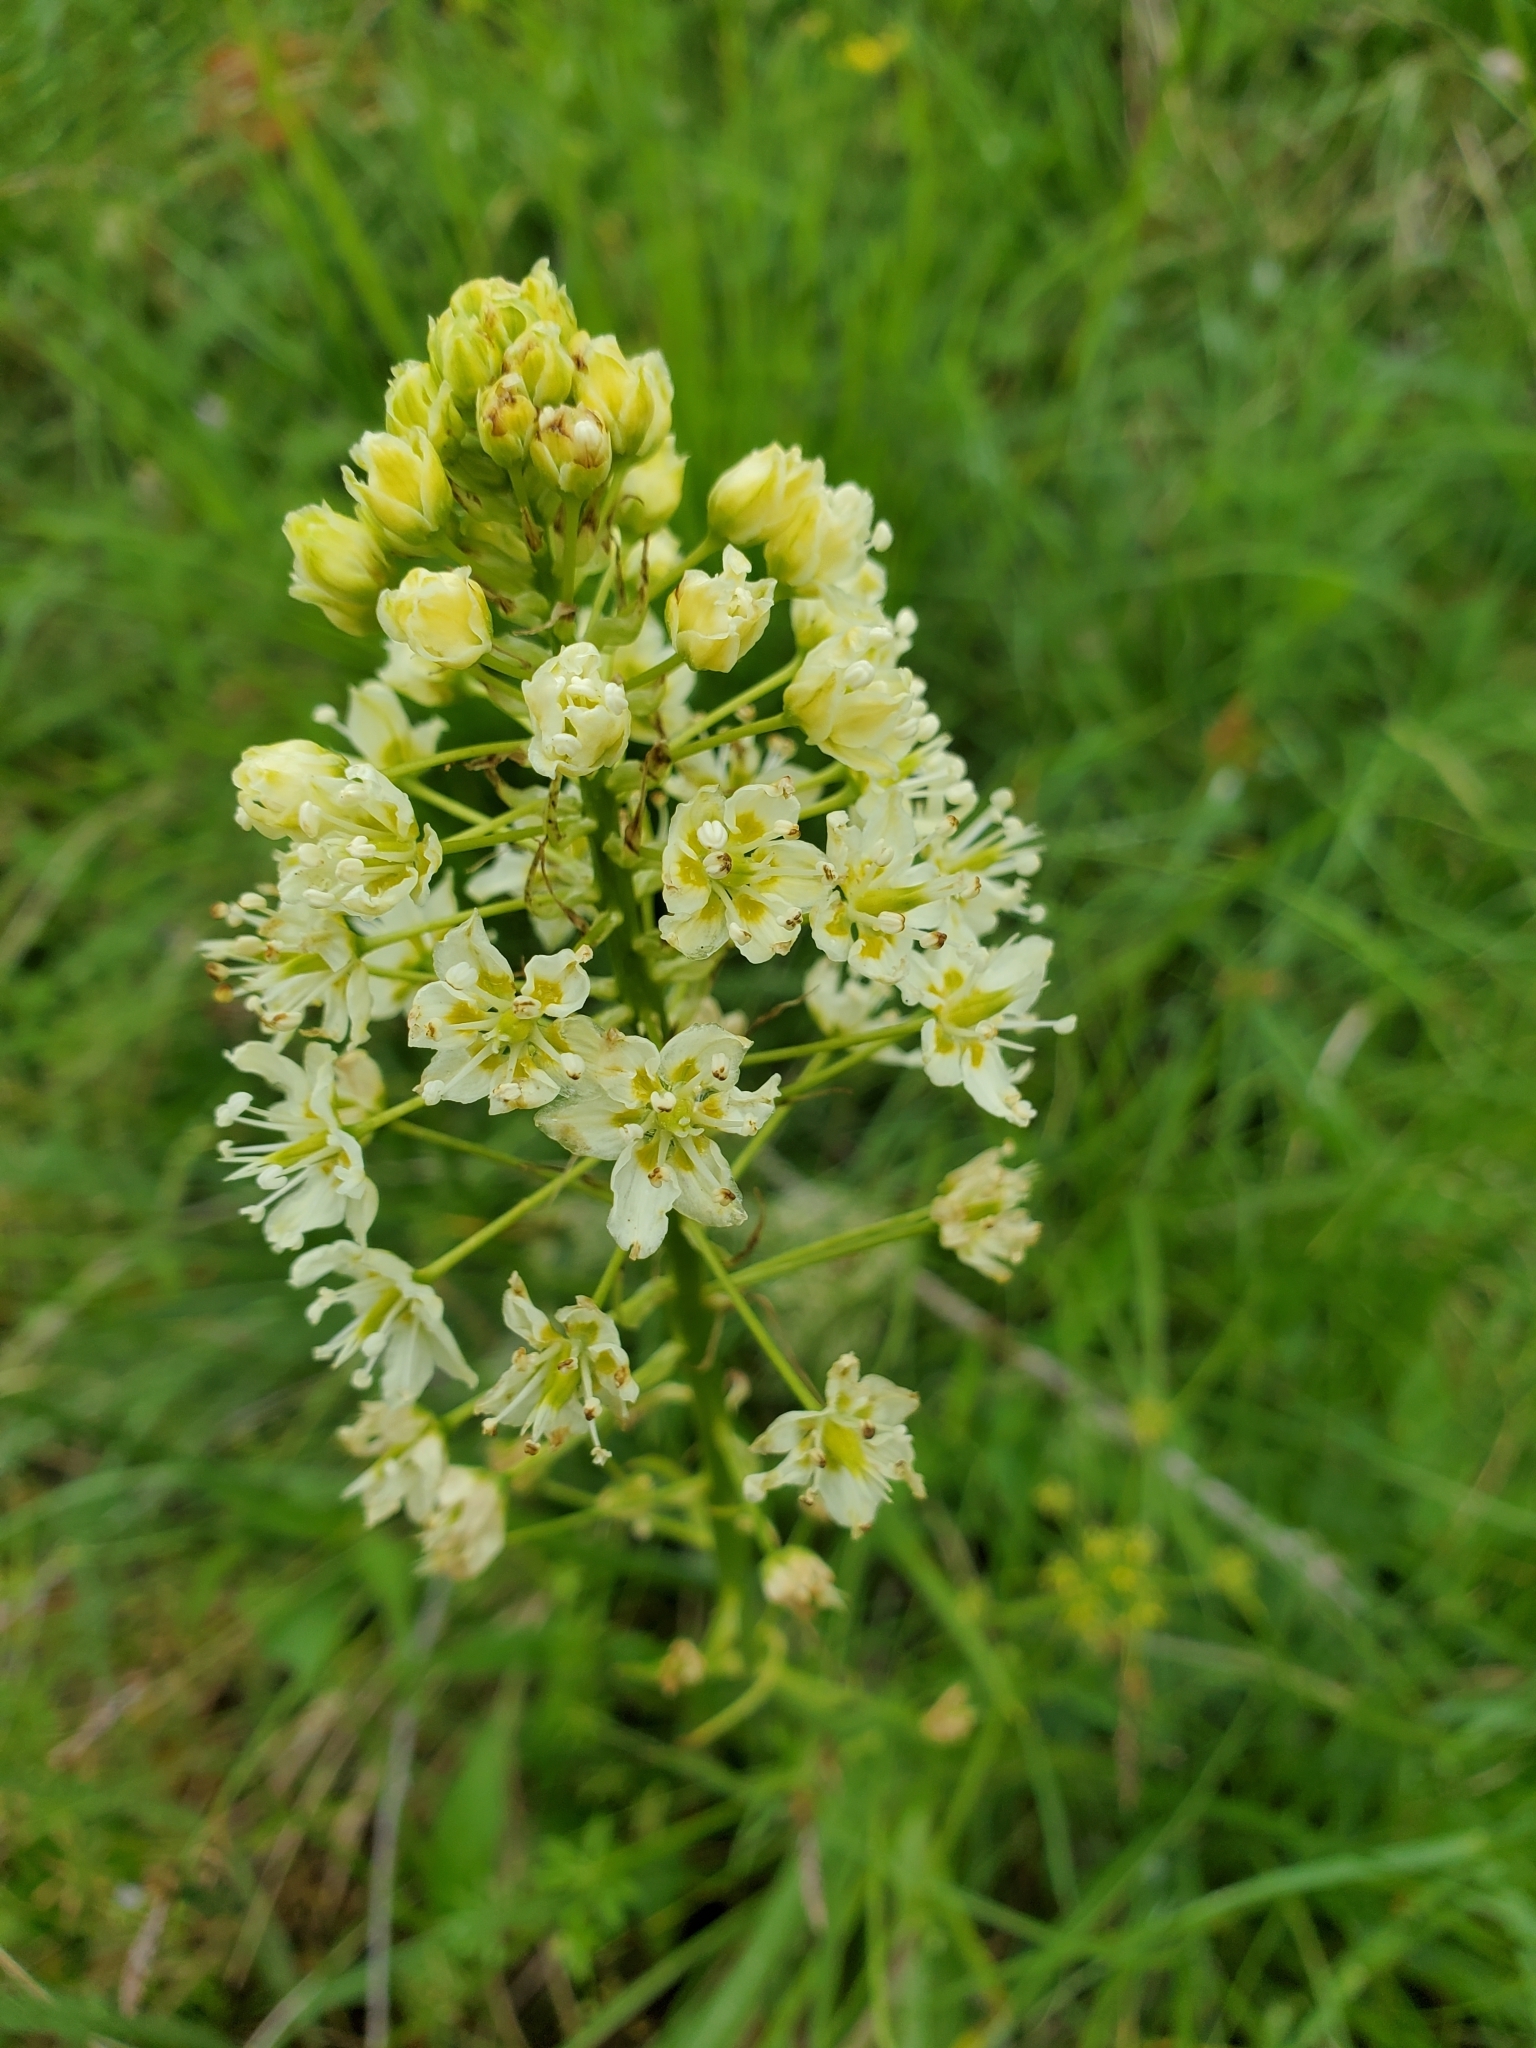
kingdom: Plantae
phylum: Tracheophyta
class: Liliopsida
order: Liliales
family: Melanthiaceae
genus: Toxicoscordion
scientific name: Toxicoscordion venenosum
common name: Meadow death camas
